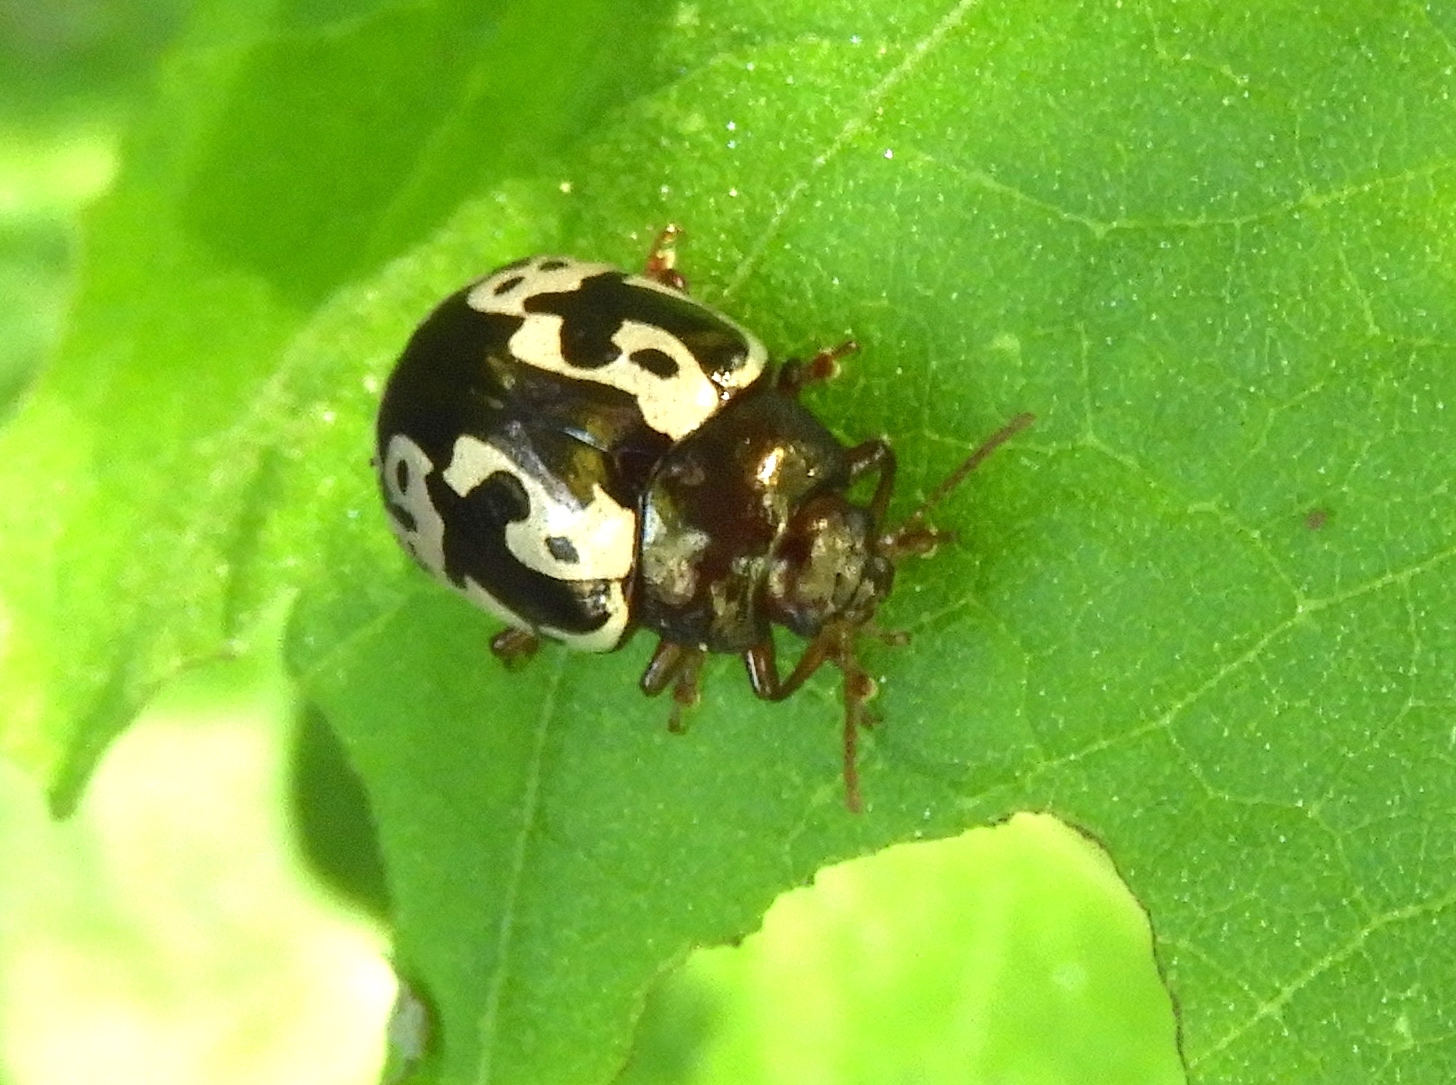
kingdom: Animalia
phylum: Arthropoda
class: Insecta
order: Coleoptera
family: Chrysomelidae
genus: Calligrapha
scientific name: Calligrapha intermedia
